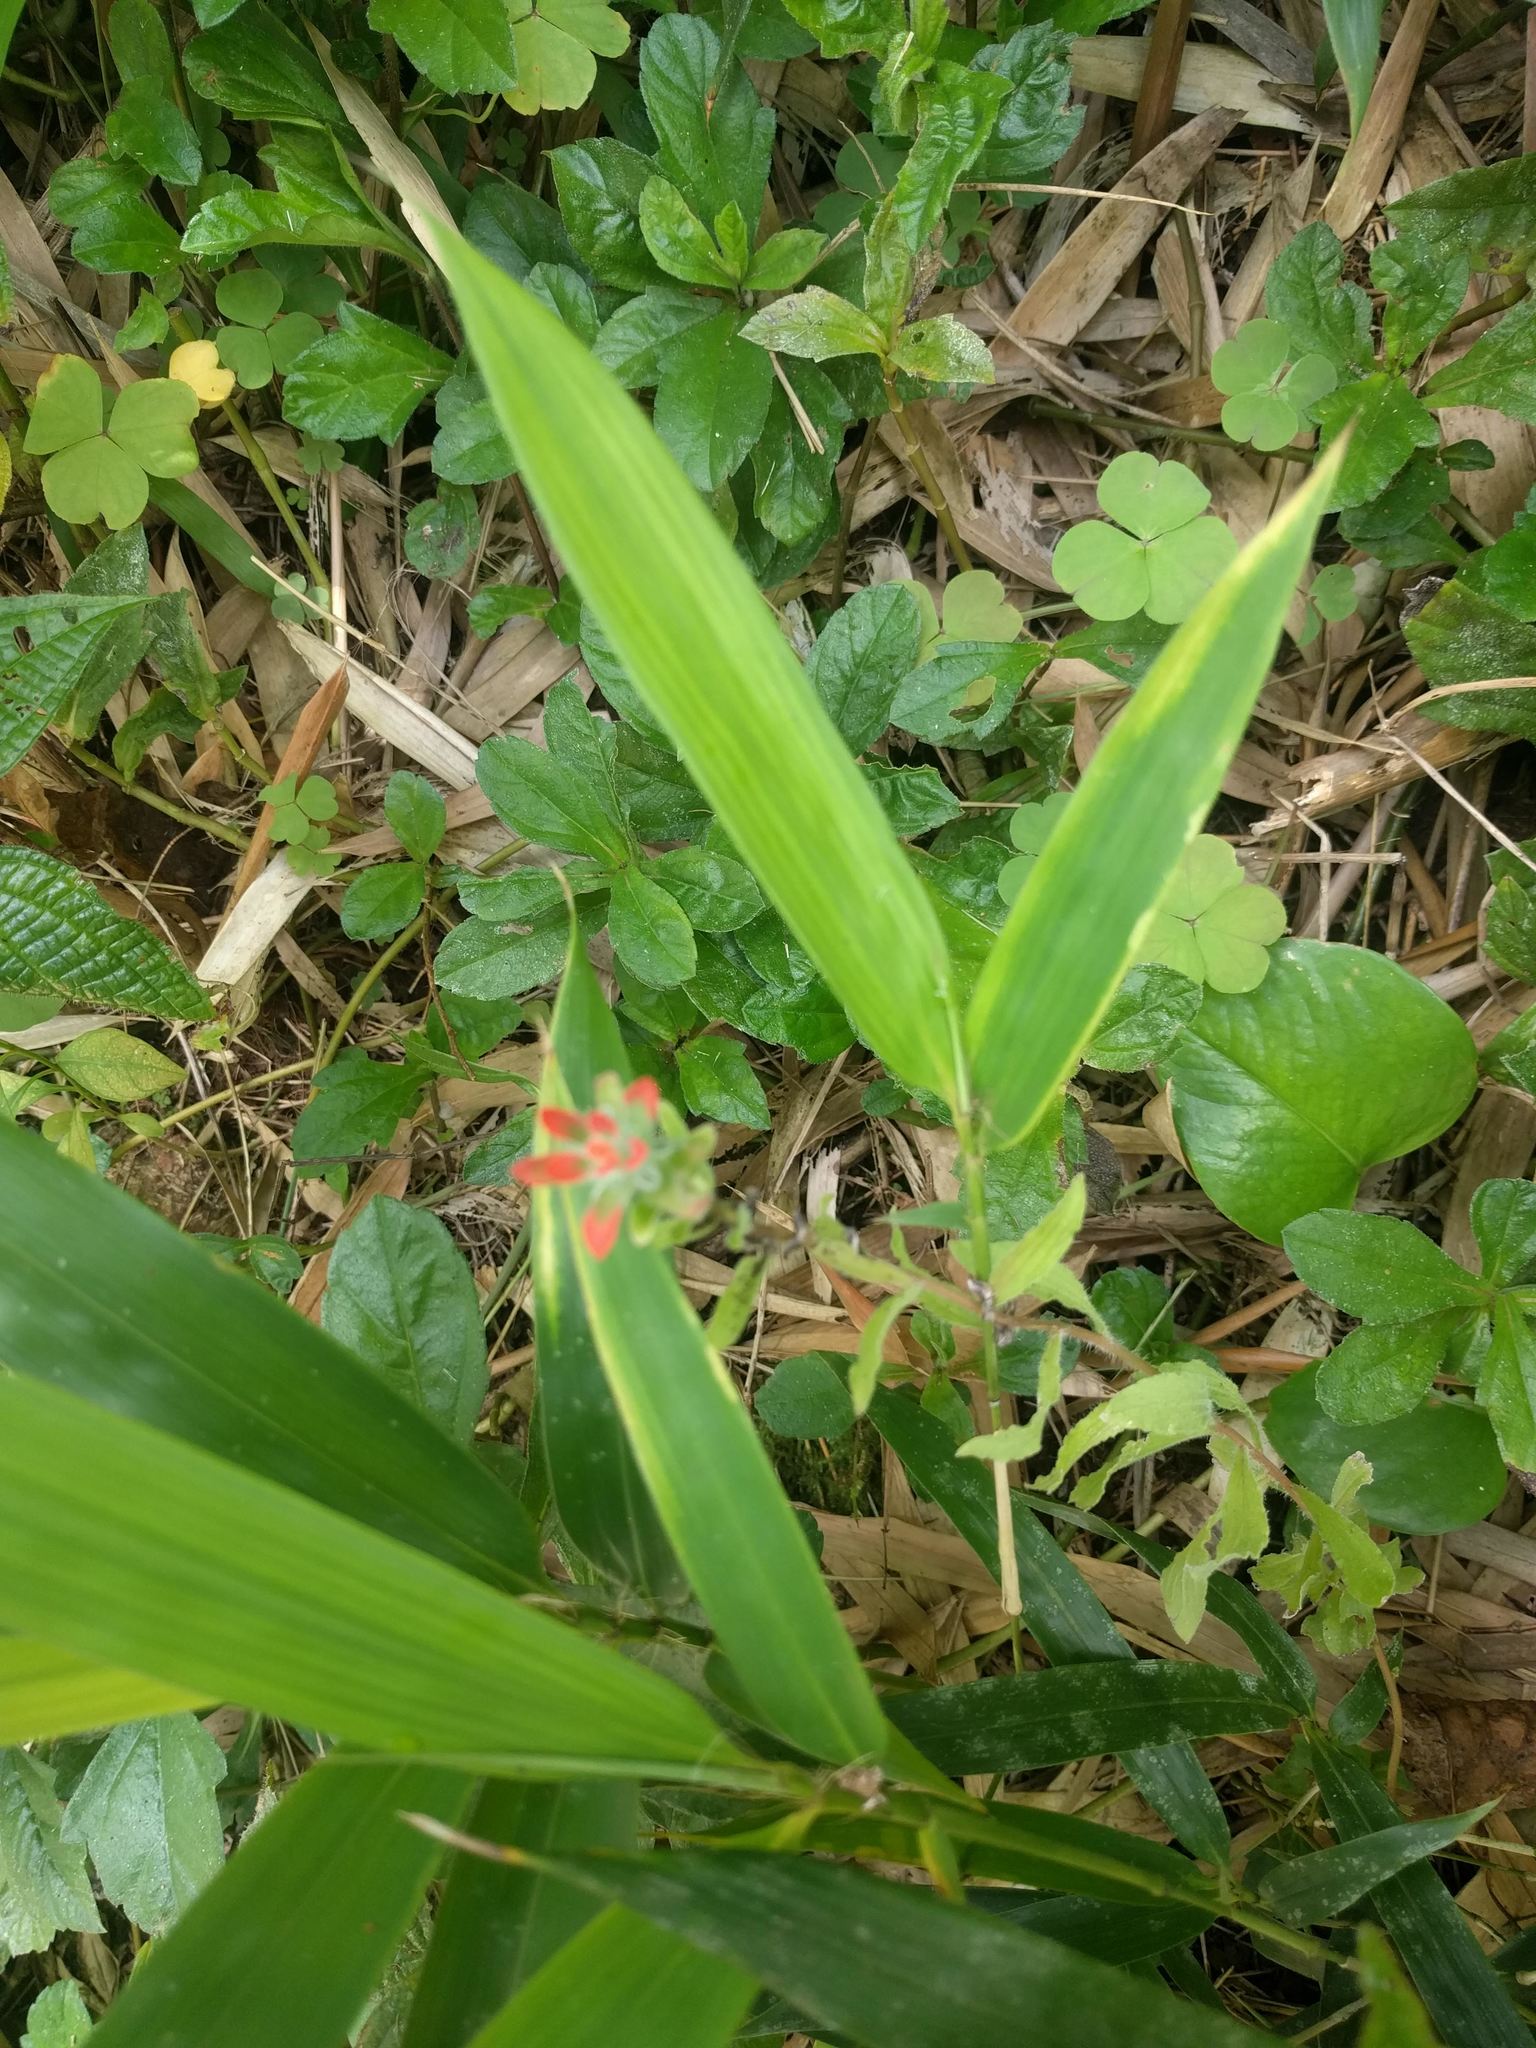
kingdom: Plantae
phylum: Tracheophyta
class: Magnoliopsida
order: Lamiales
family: Orobanchaceae
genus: Castilleja
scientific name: Castilleja arvensis
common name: Indian paintbrush
